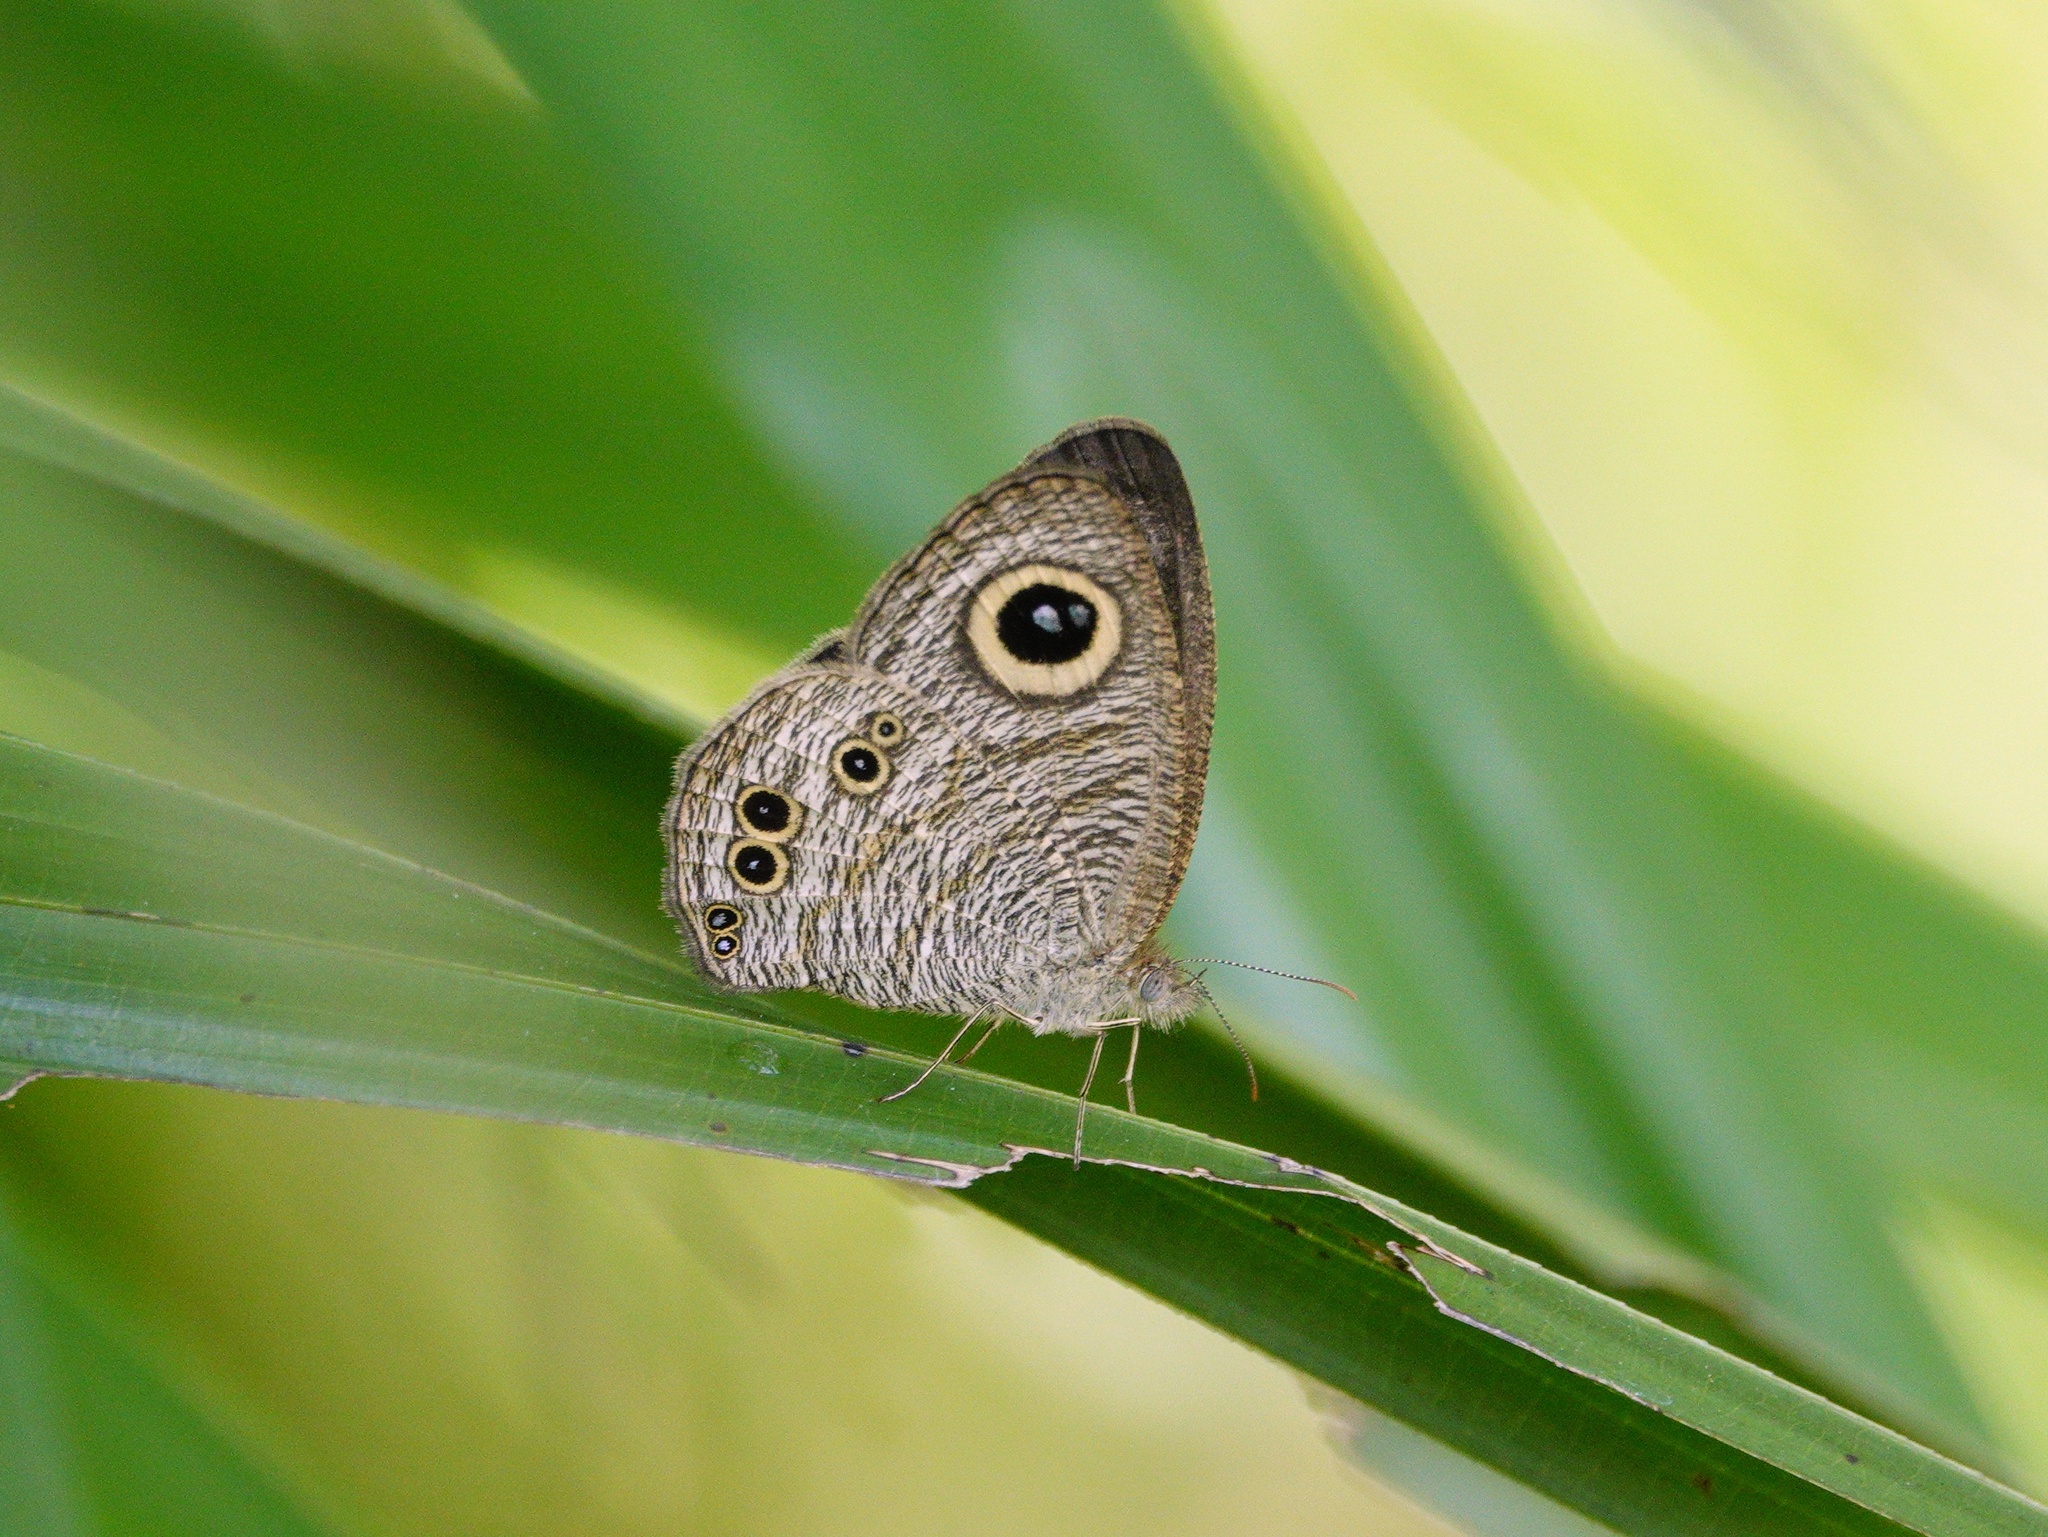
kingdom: Animalia
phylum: Arthropoda
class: Insecta
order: Lepidoptera
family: Nymphalidae
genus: Ypthima
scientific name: Ypthima baldus
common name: Common five-ring
